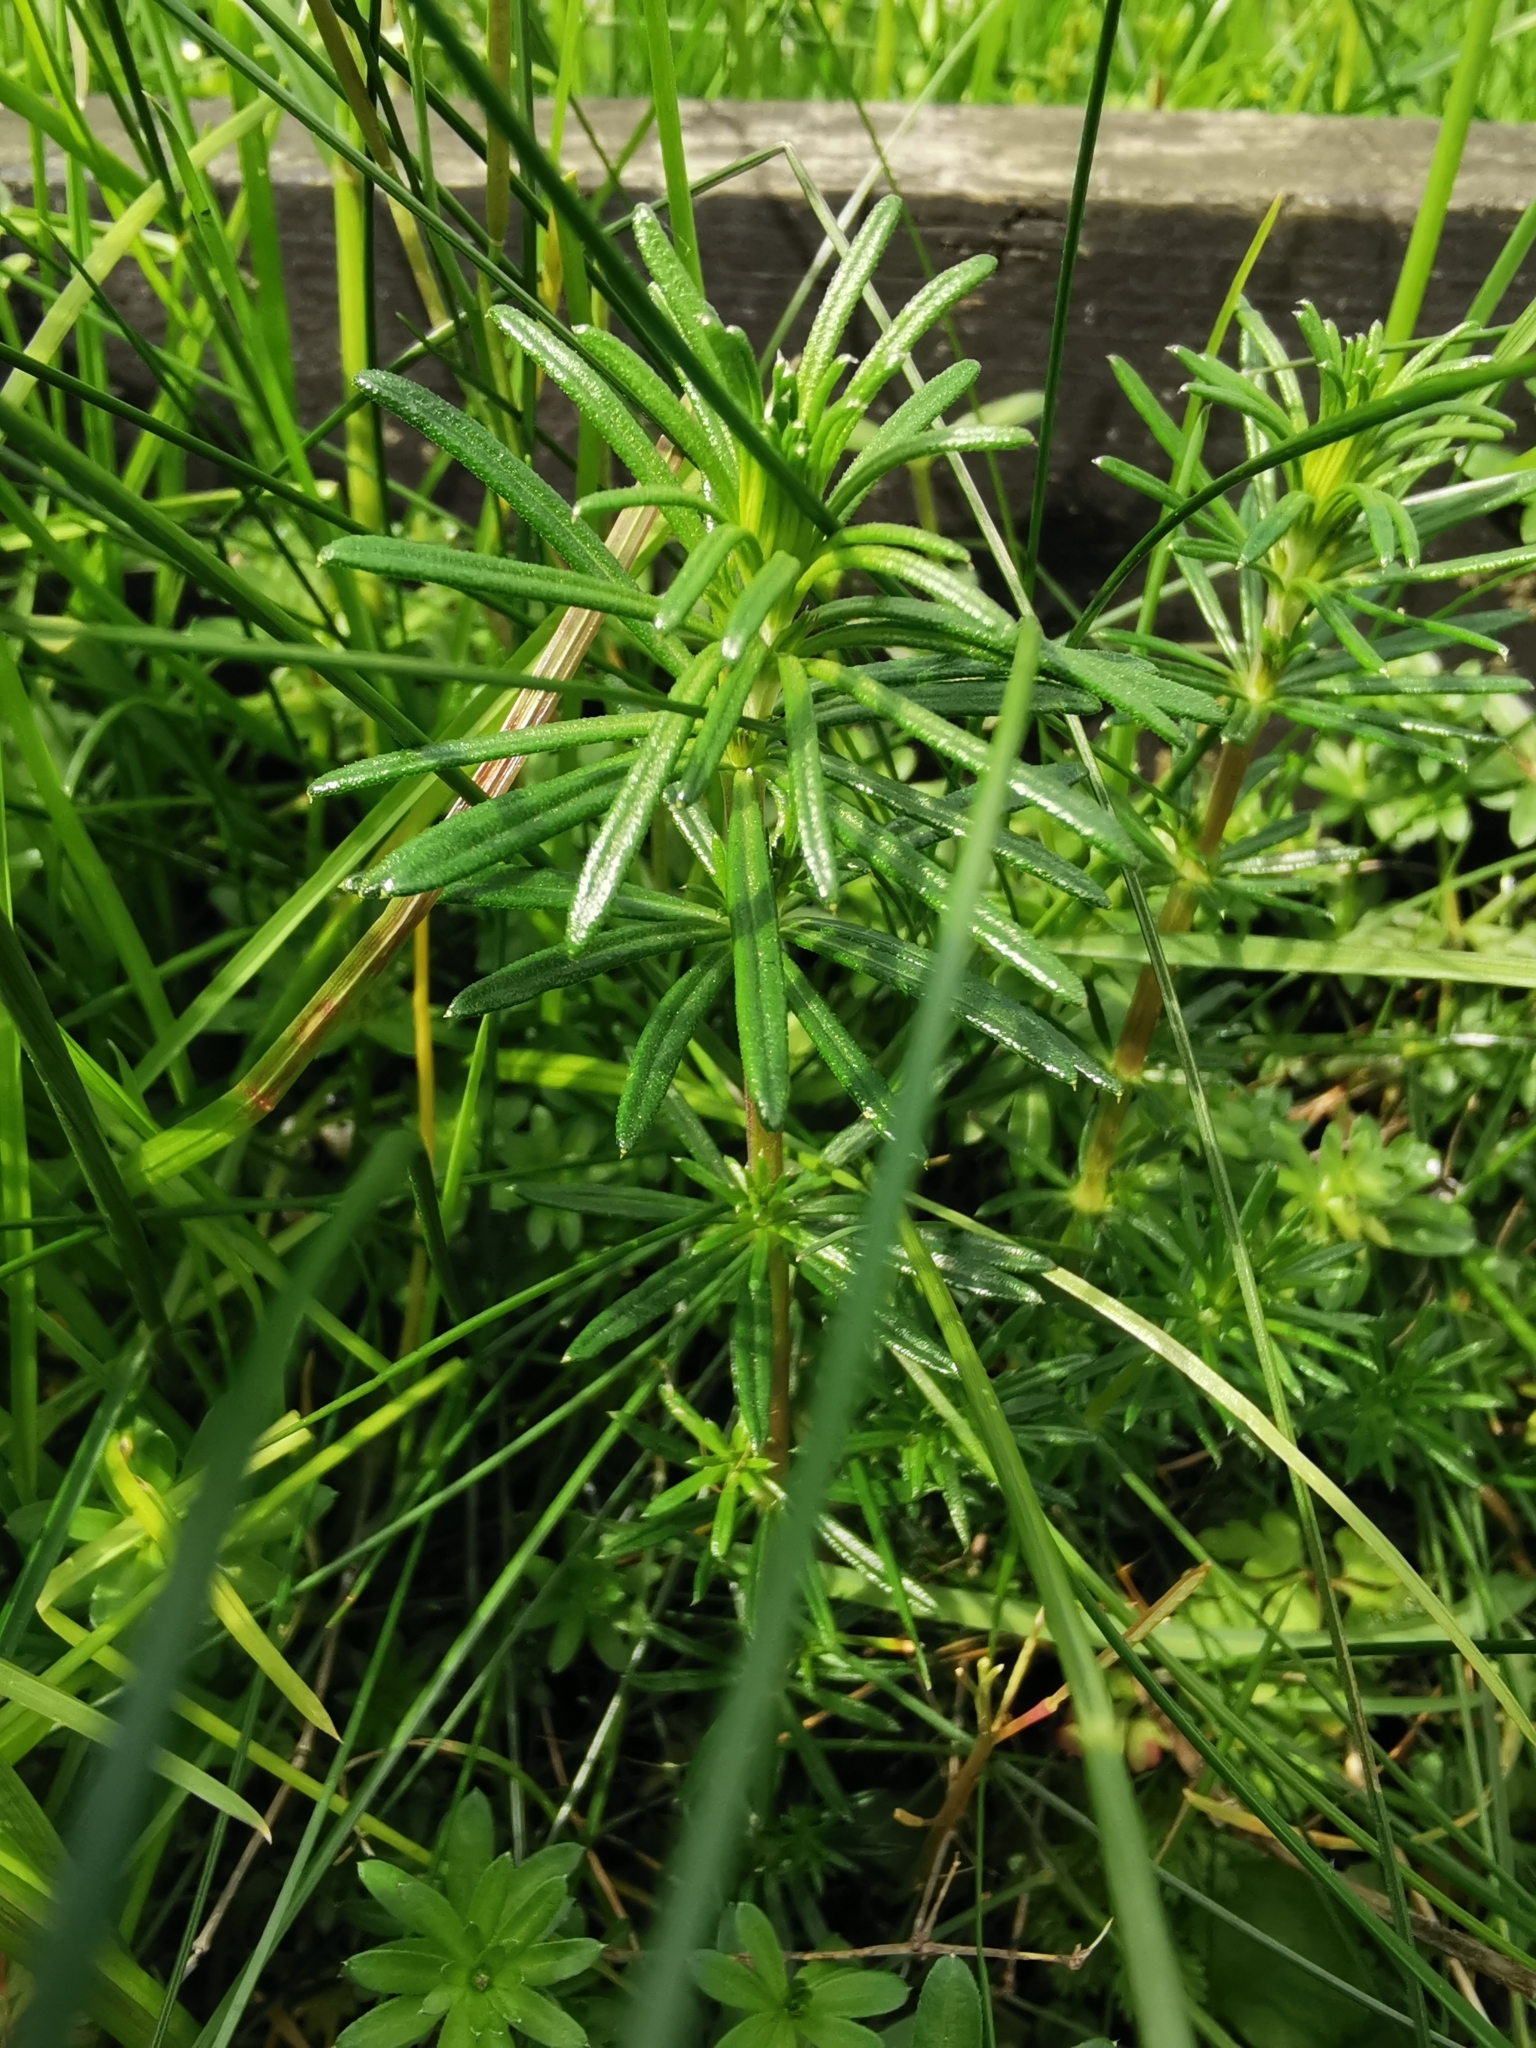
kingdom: Plantae
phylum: Tracheophyta
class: Magnoliopsida
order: Gentianales
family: Rubiaceae
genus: Galium
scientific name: Galium verum
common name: Lady's bedstraw
